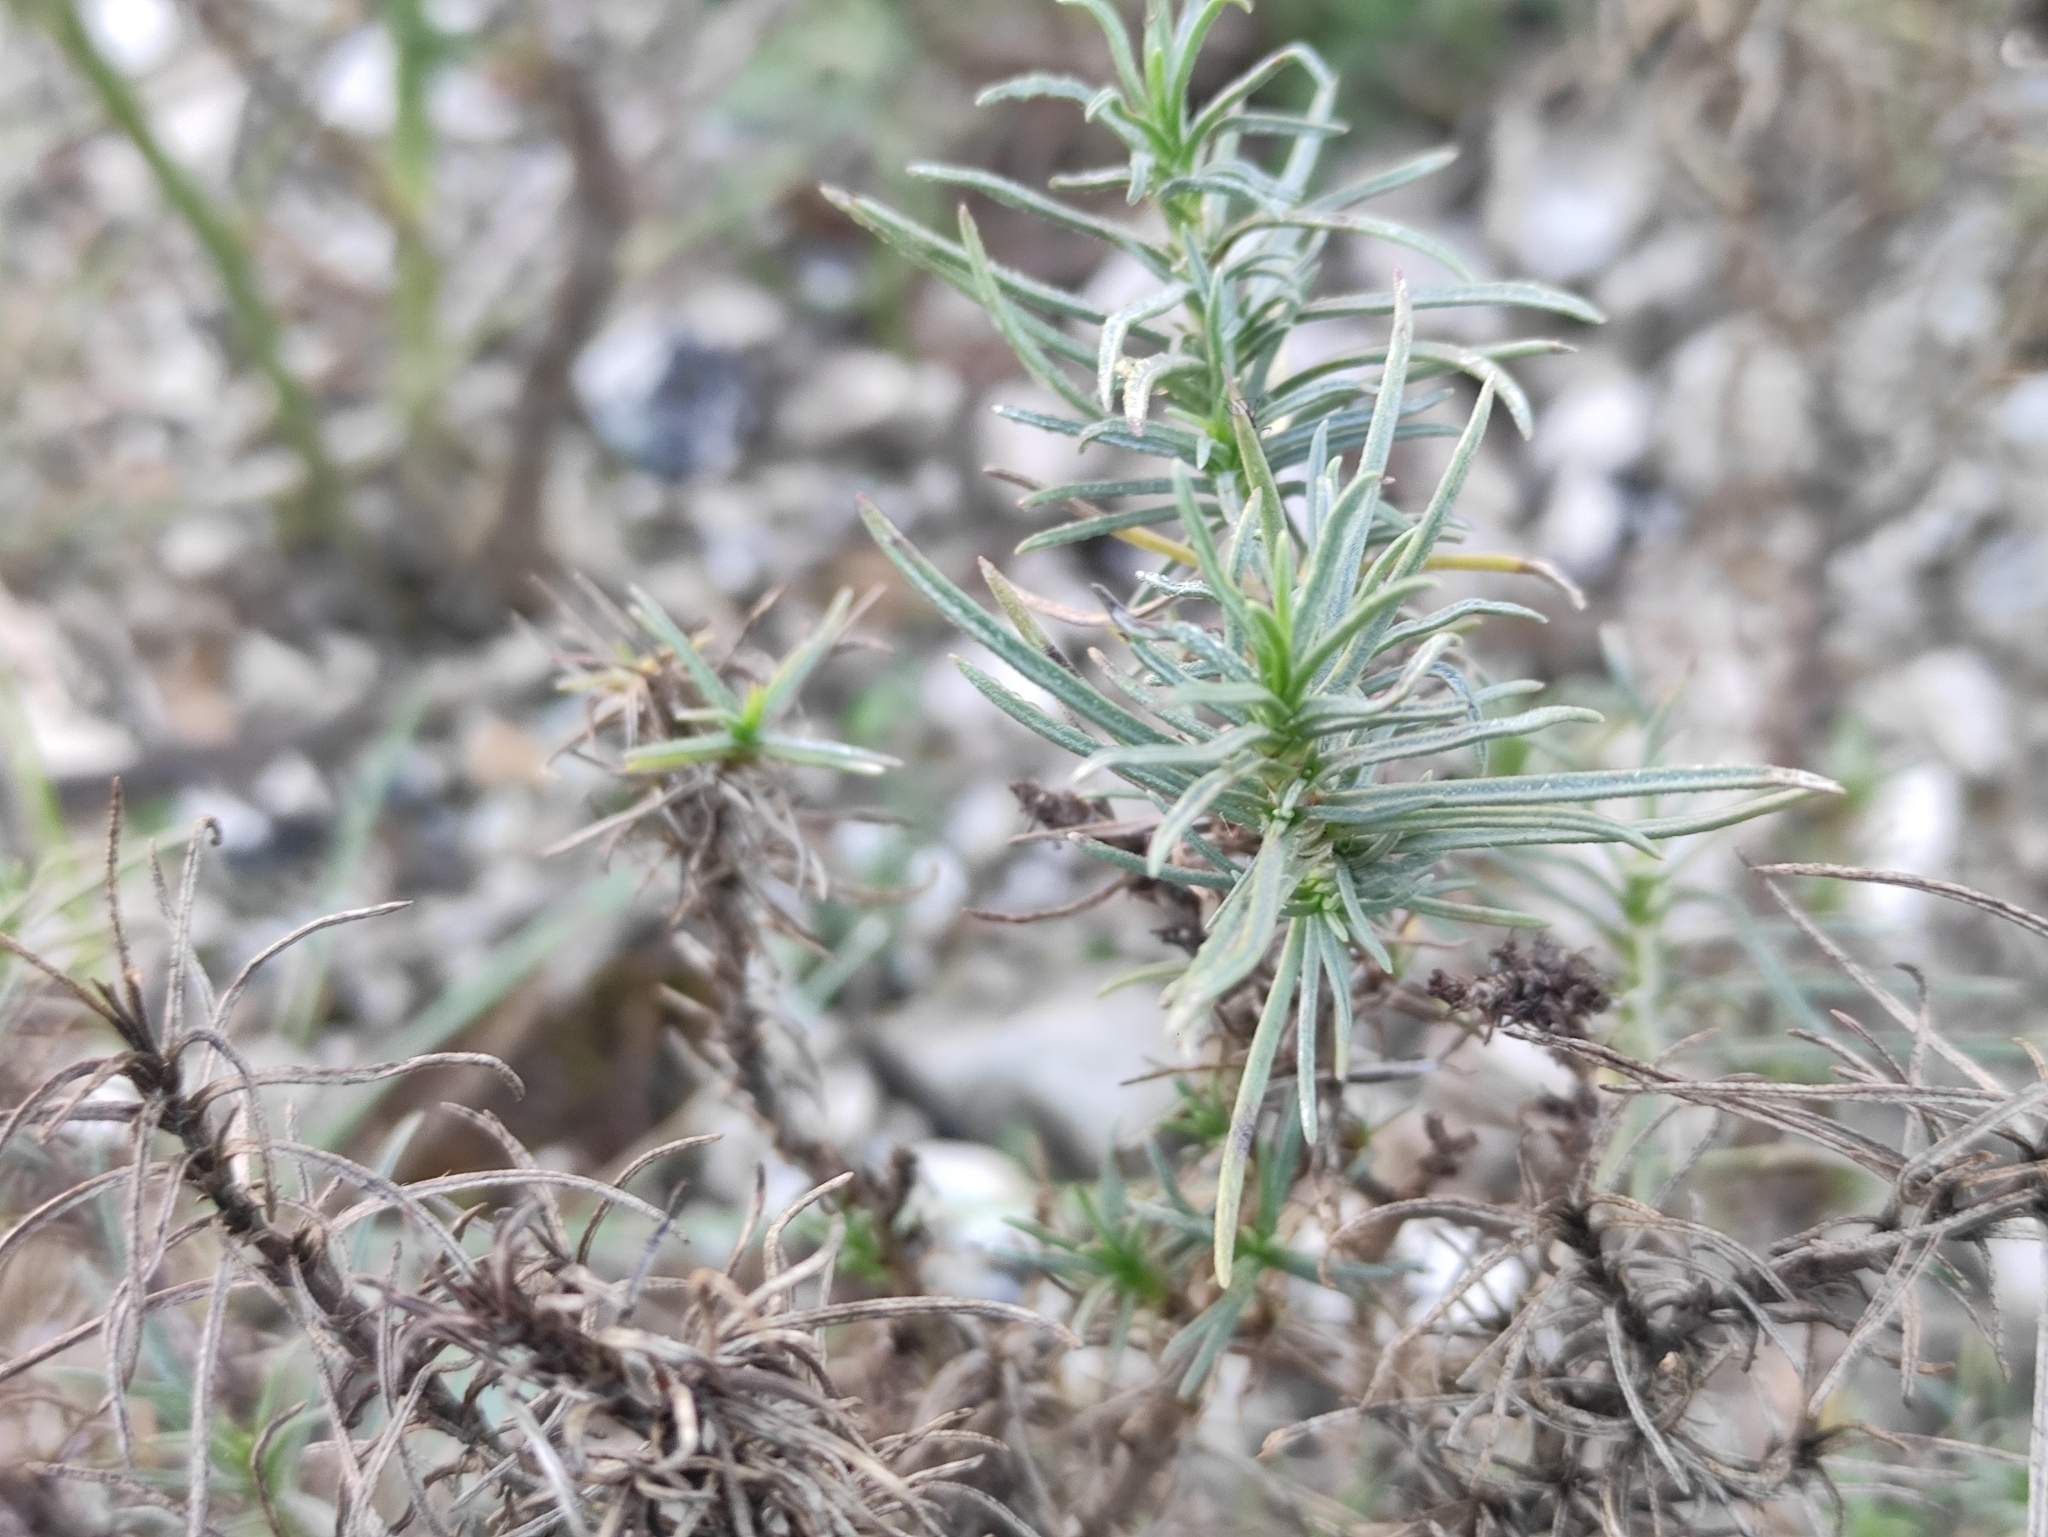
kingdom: Plantae
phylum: Tracheophyta
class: Magnoliopsida
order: Lamiales
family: Plantaginaceae
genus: Plantago
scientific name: Plantago sempervirens
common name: Shrubby plantain
